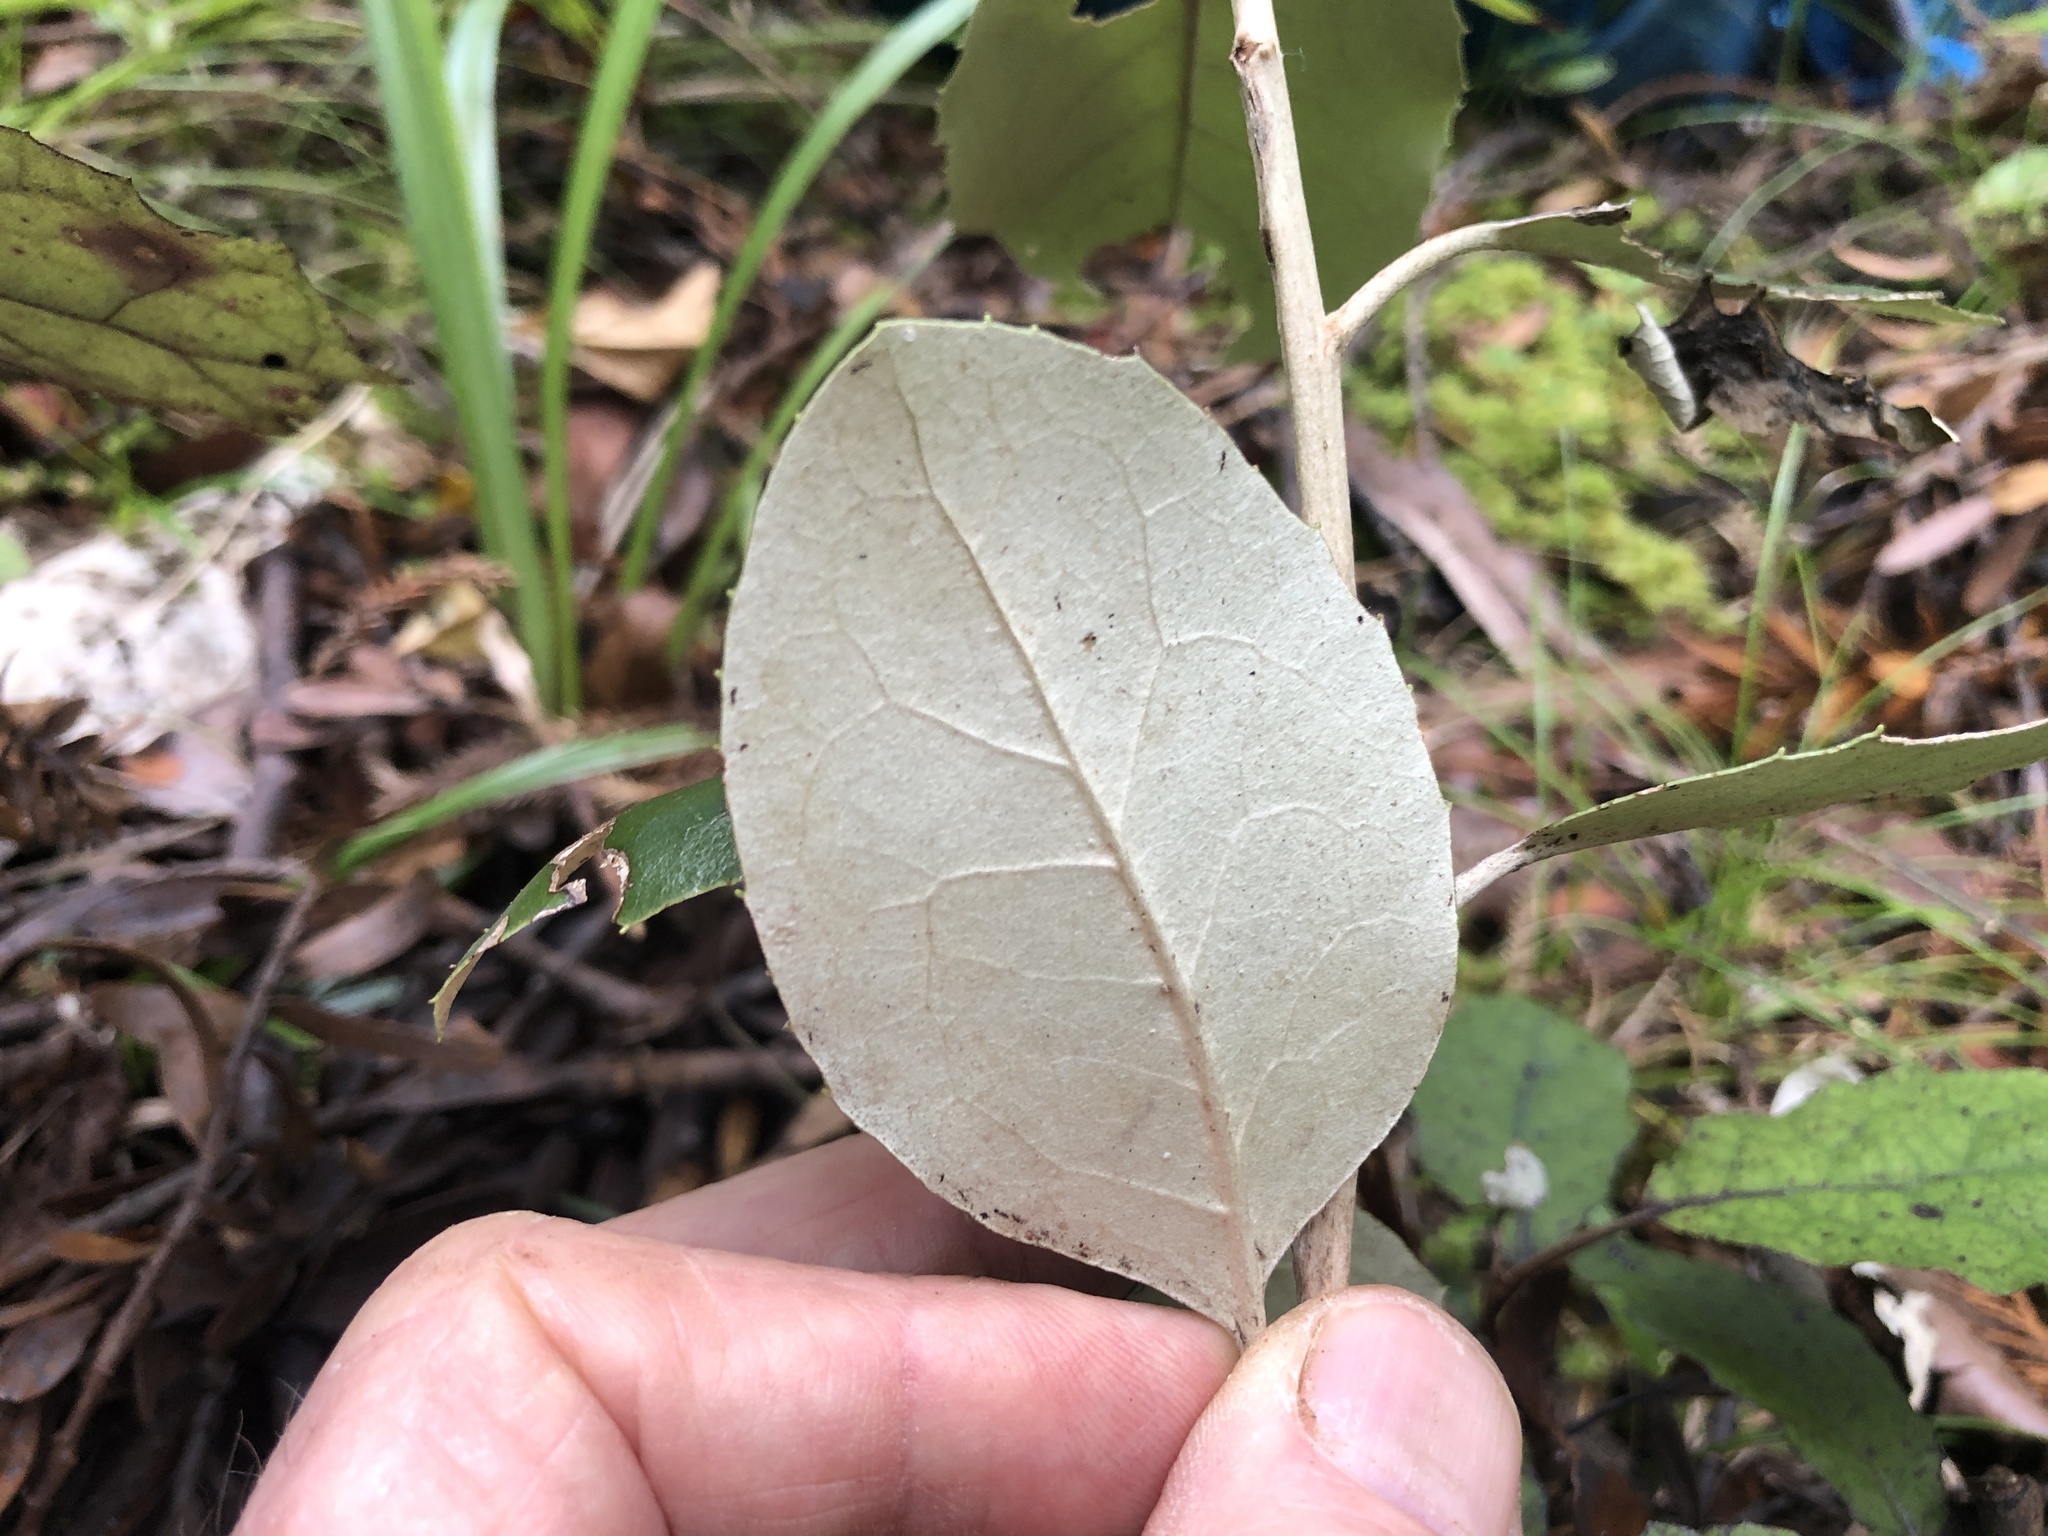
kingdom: Plantae
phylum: Tracheophyta
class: Magnoliopsida
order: Asterales
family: Asteraceae
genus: Olearia
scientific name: Olearia furfuracea
